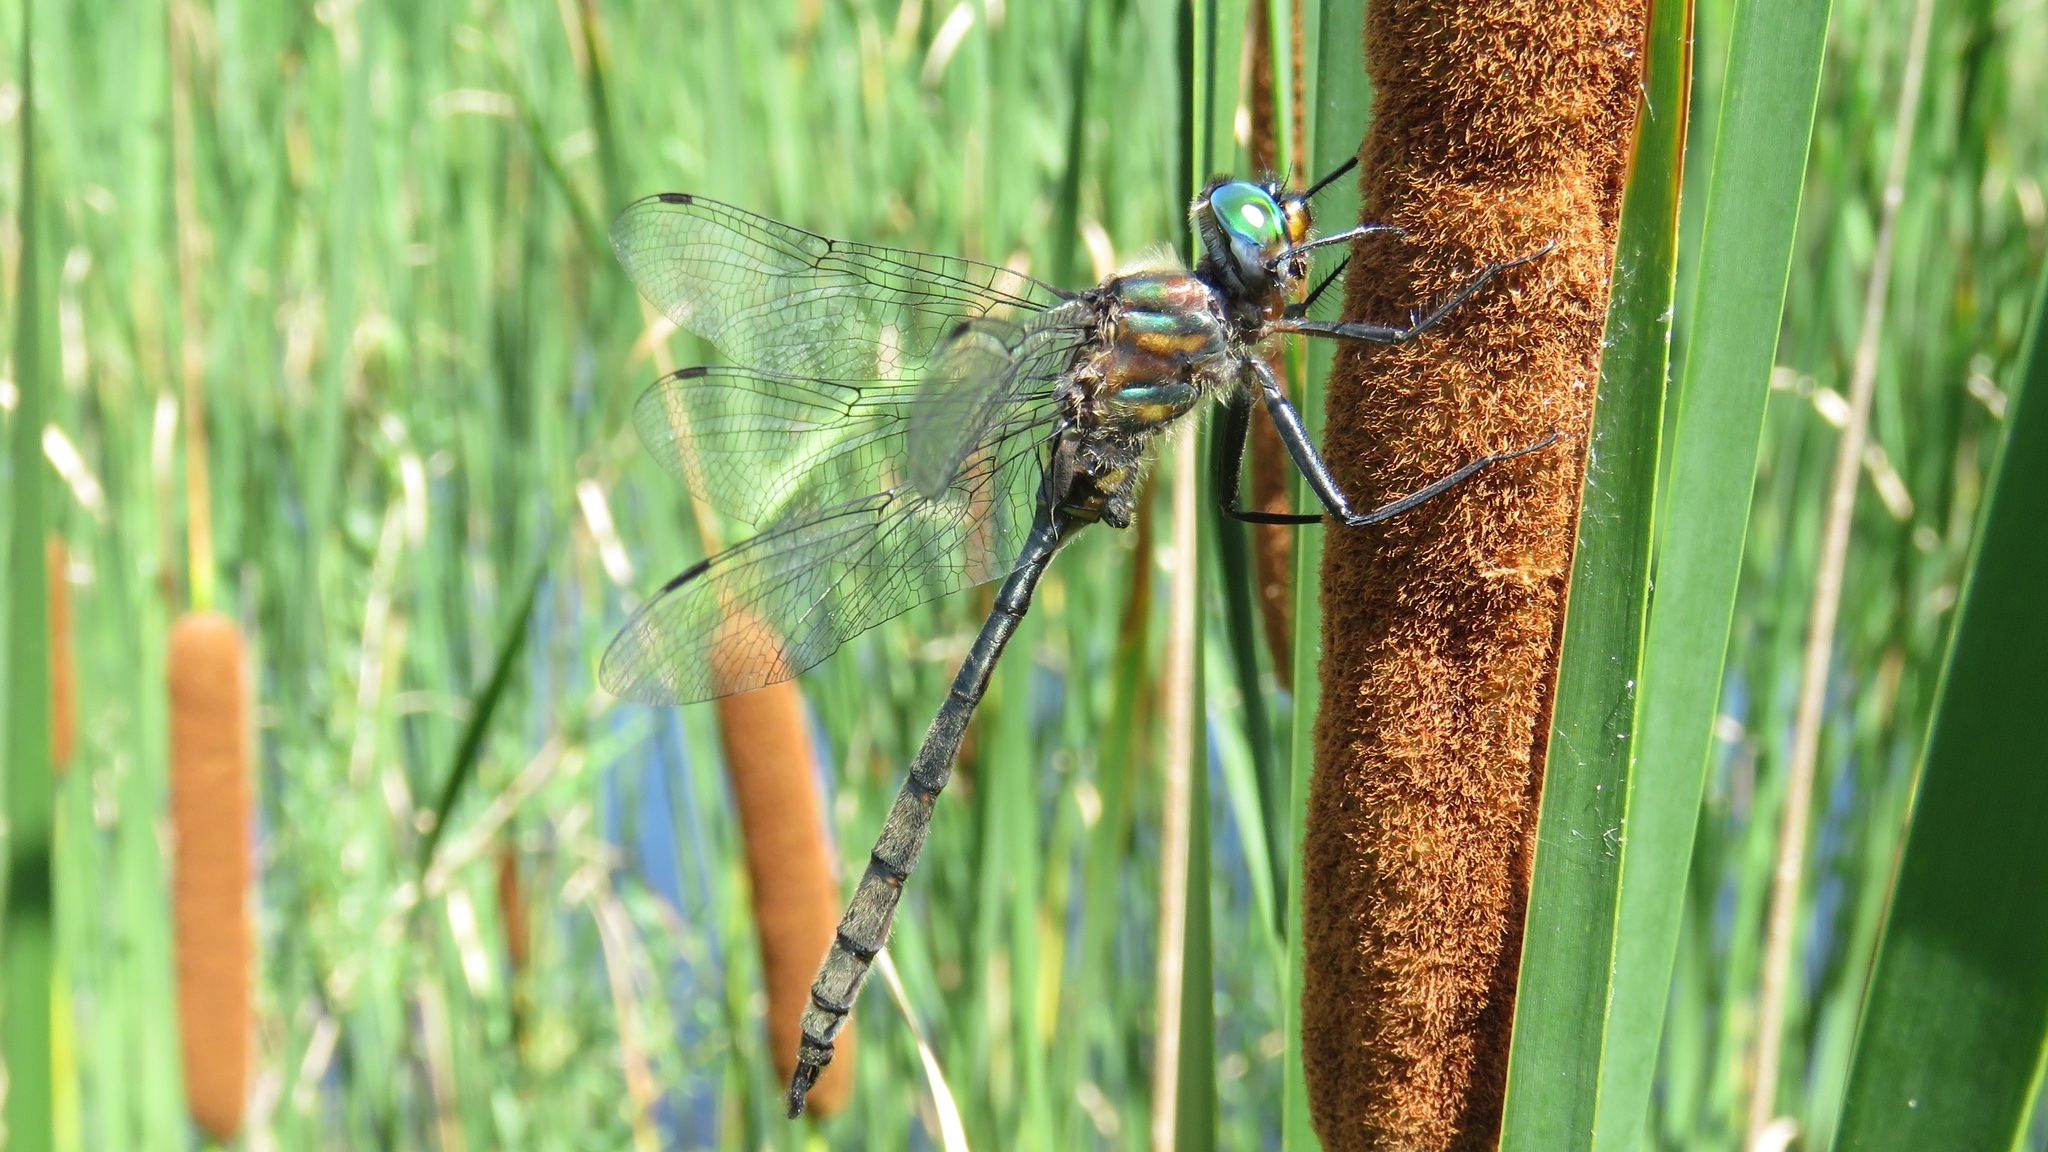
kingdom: Animalia
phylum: Arthropoda
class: Insecta
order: Odonata
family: Corduliidae
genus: Somatochlora
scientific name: Somatochlora williamsoni
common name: Williamson's emerald
